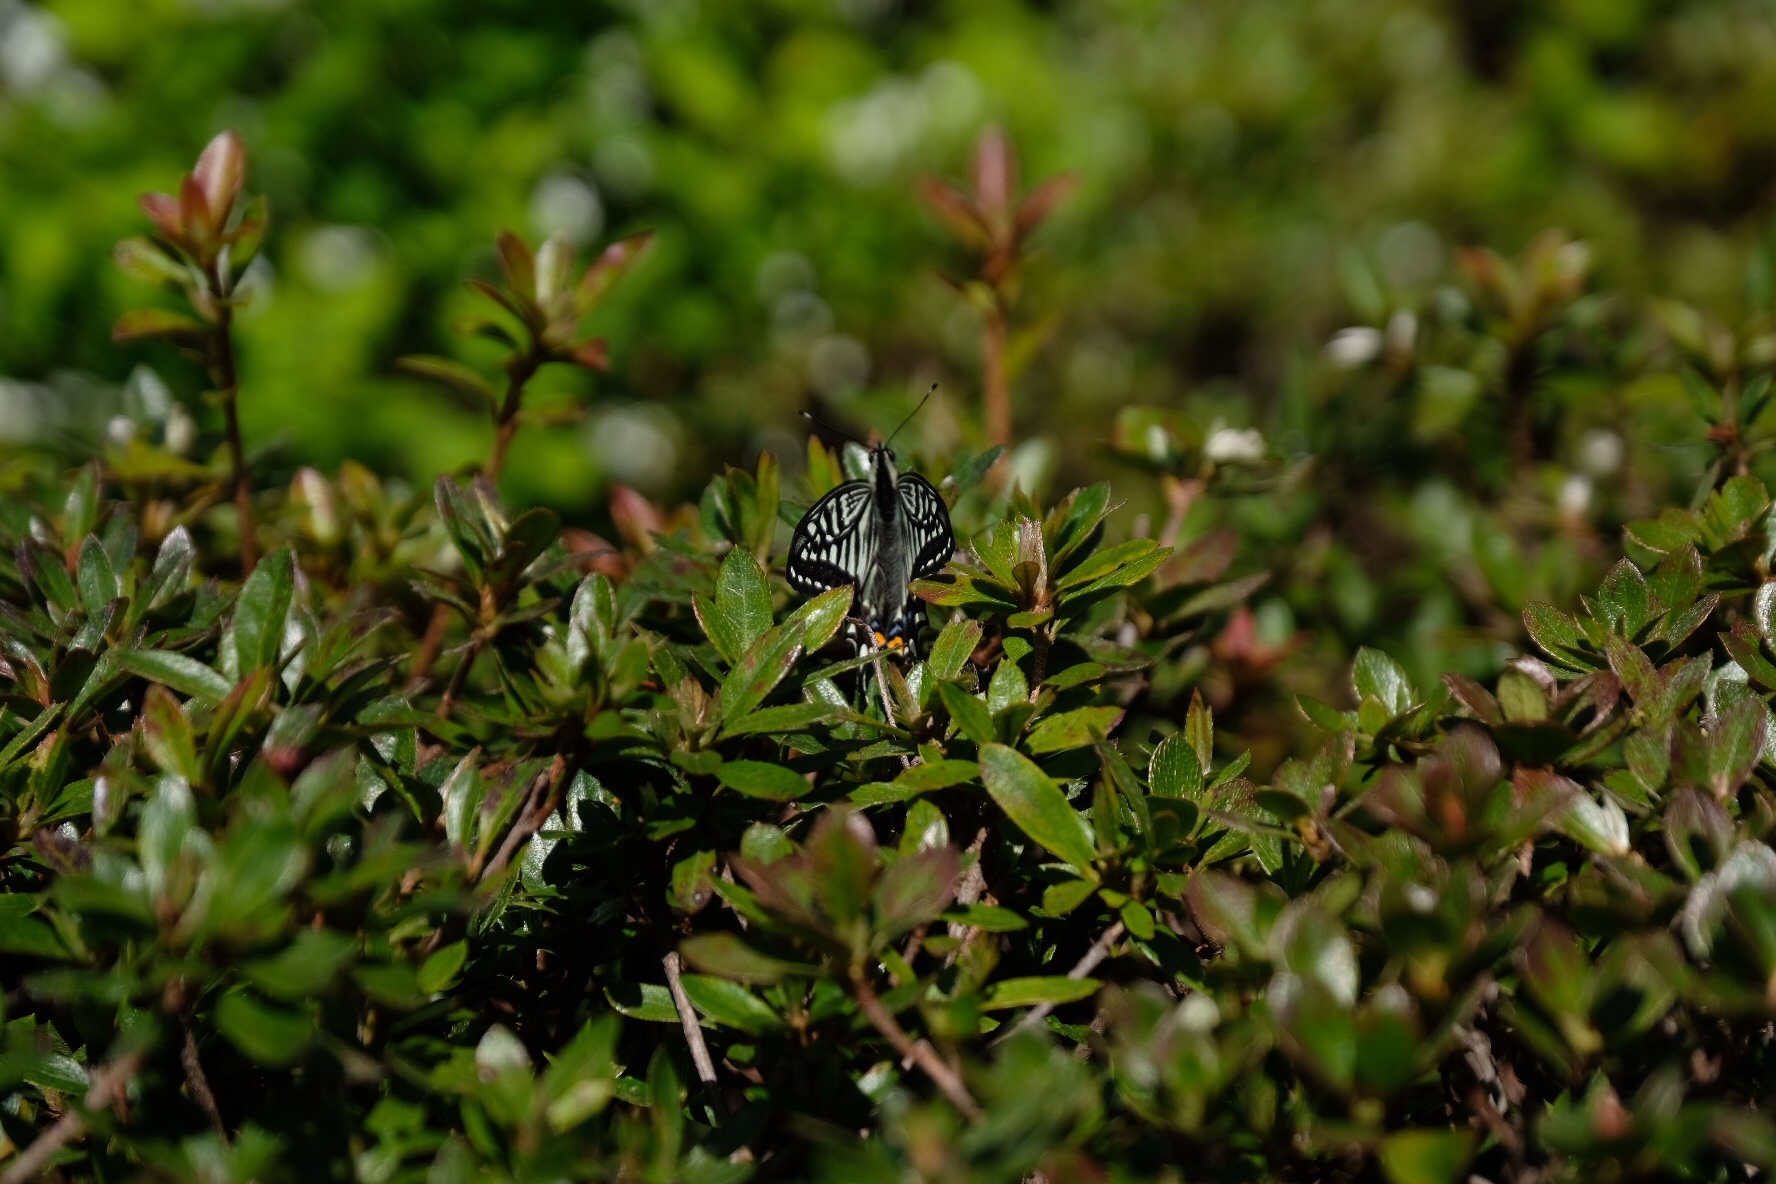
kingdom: Animalia
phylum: Arthropoda
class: Insecta
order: Lepidoptera
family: Papilionidae
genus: Papilio
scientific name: Papilio xuthus
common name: Asian swallowtail
